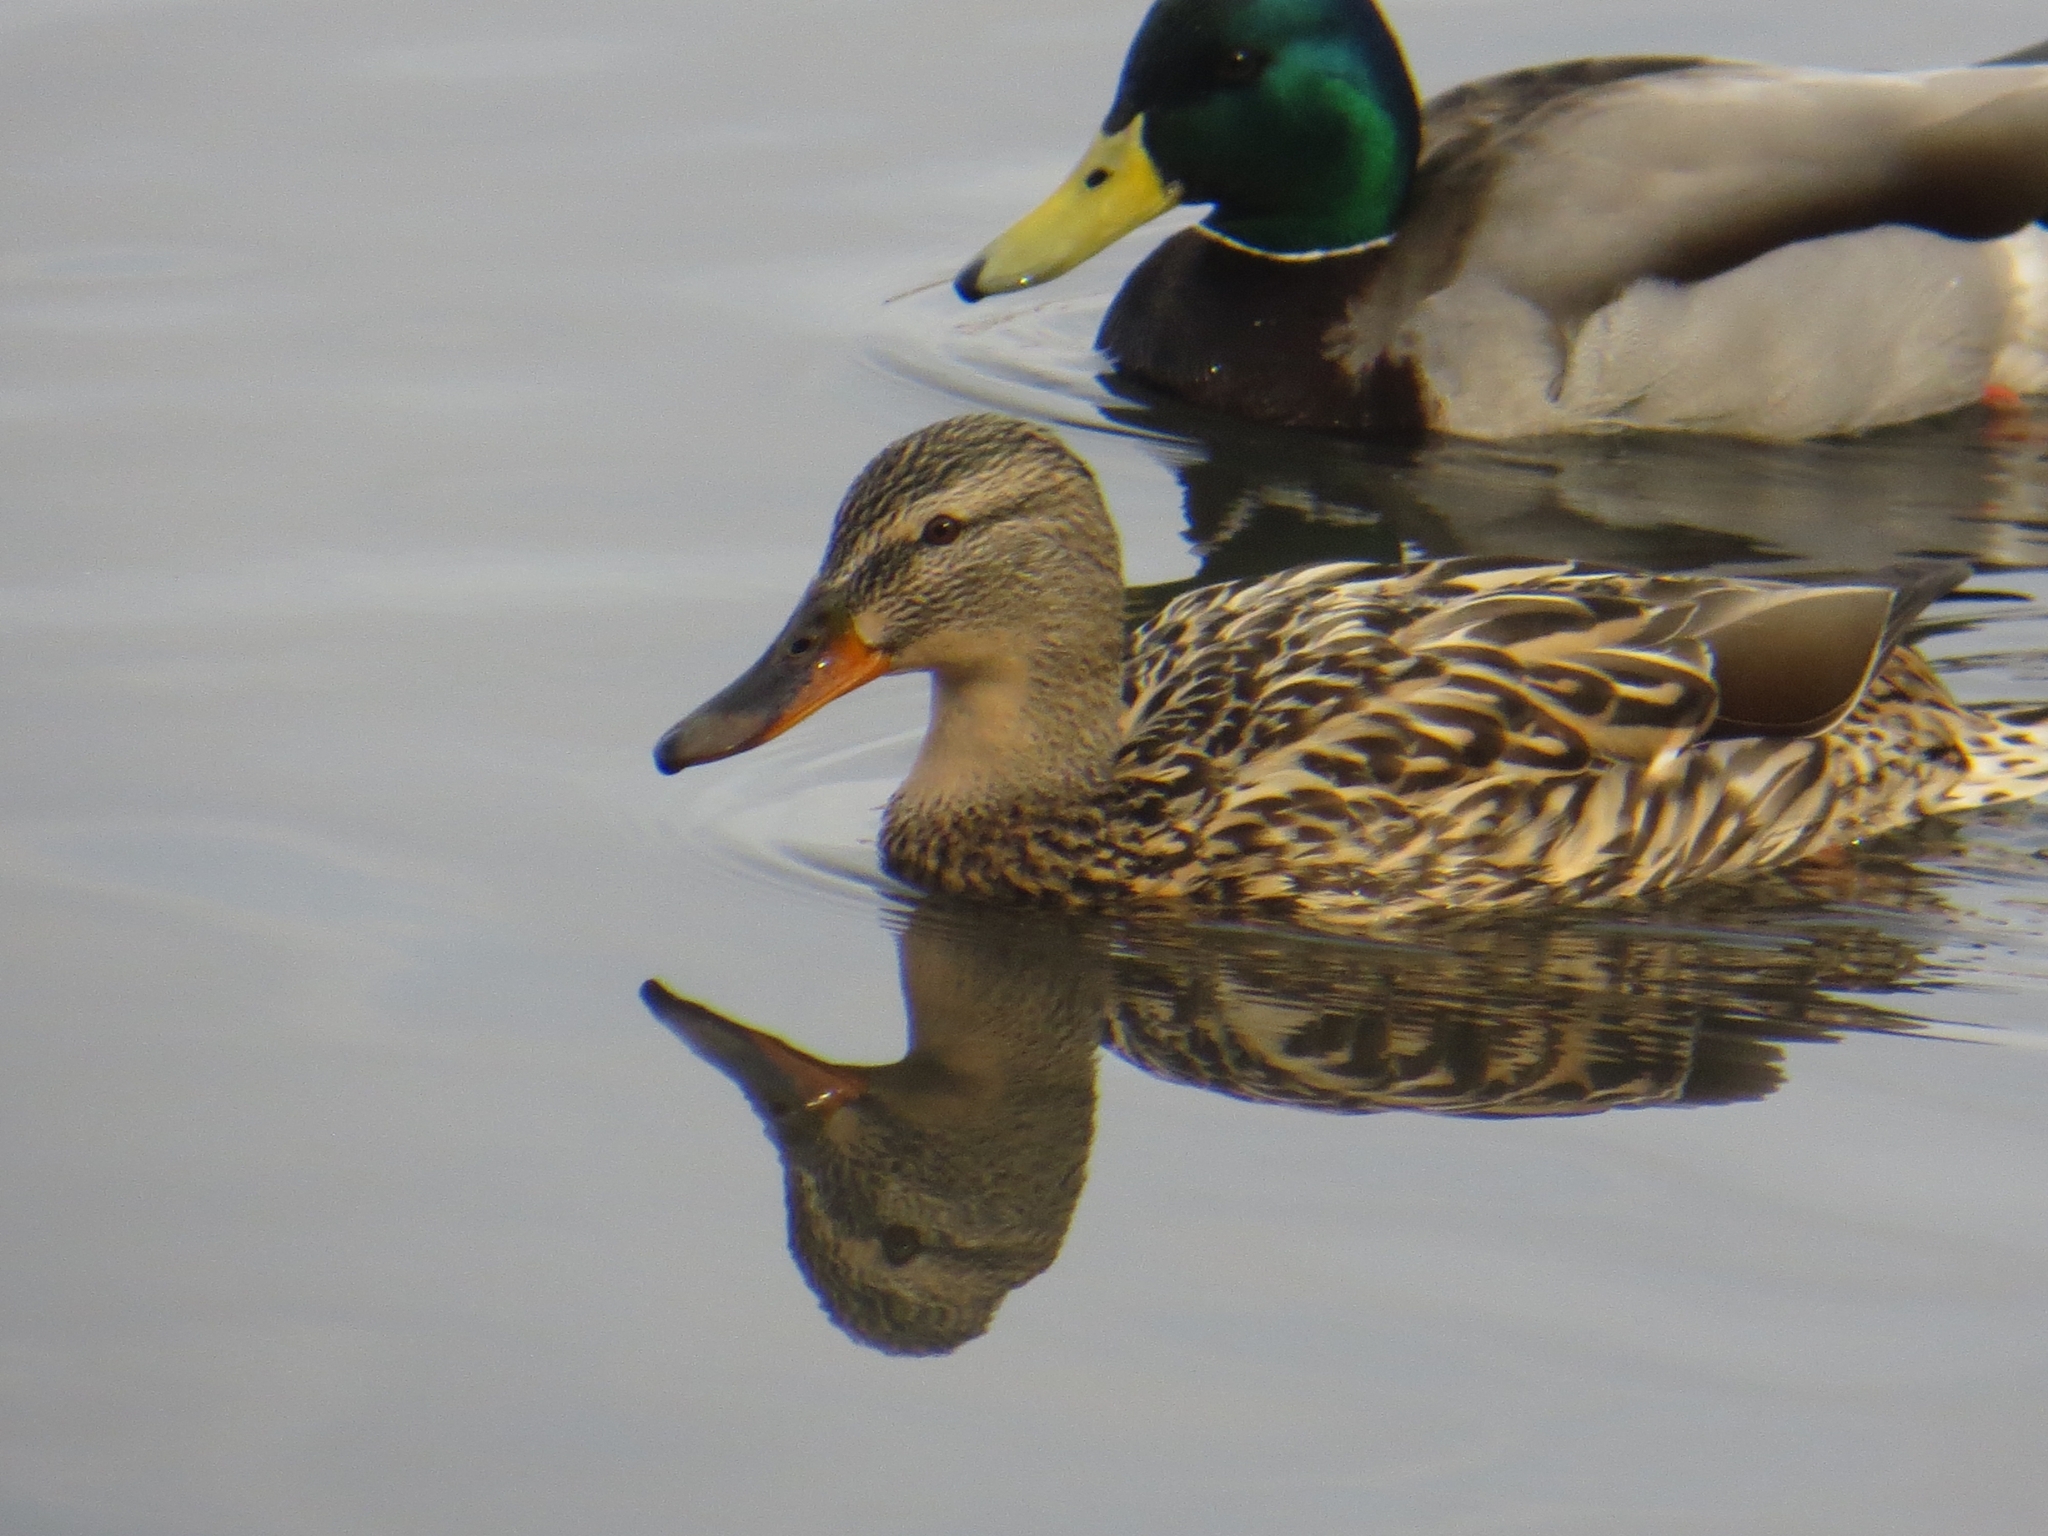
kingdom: Animalia
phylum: Chordata
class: Aves
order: Anseriformes
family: Anatidae
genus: Anas
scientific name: Anas platyrhynchos
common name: Mallard
